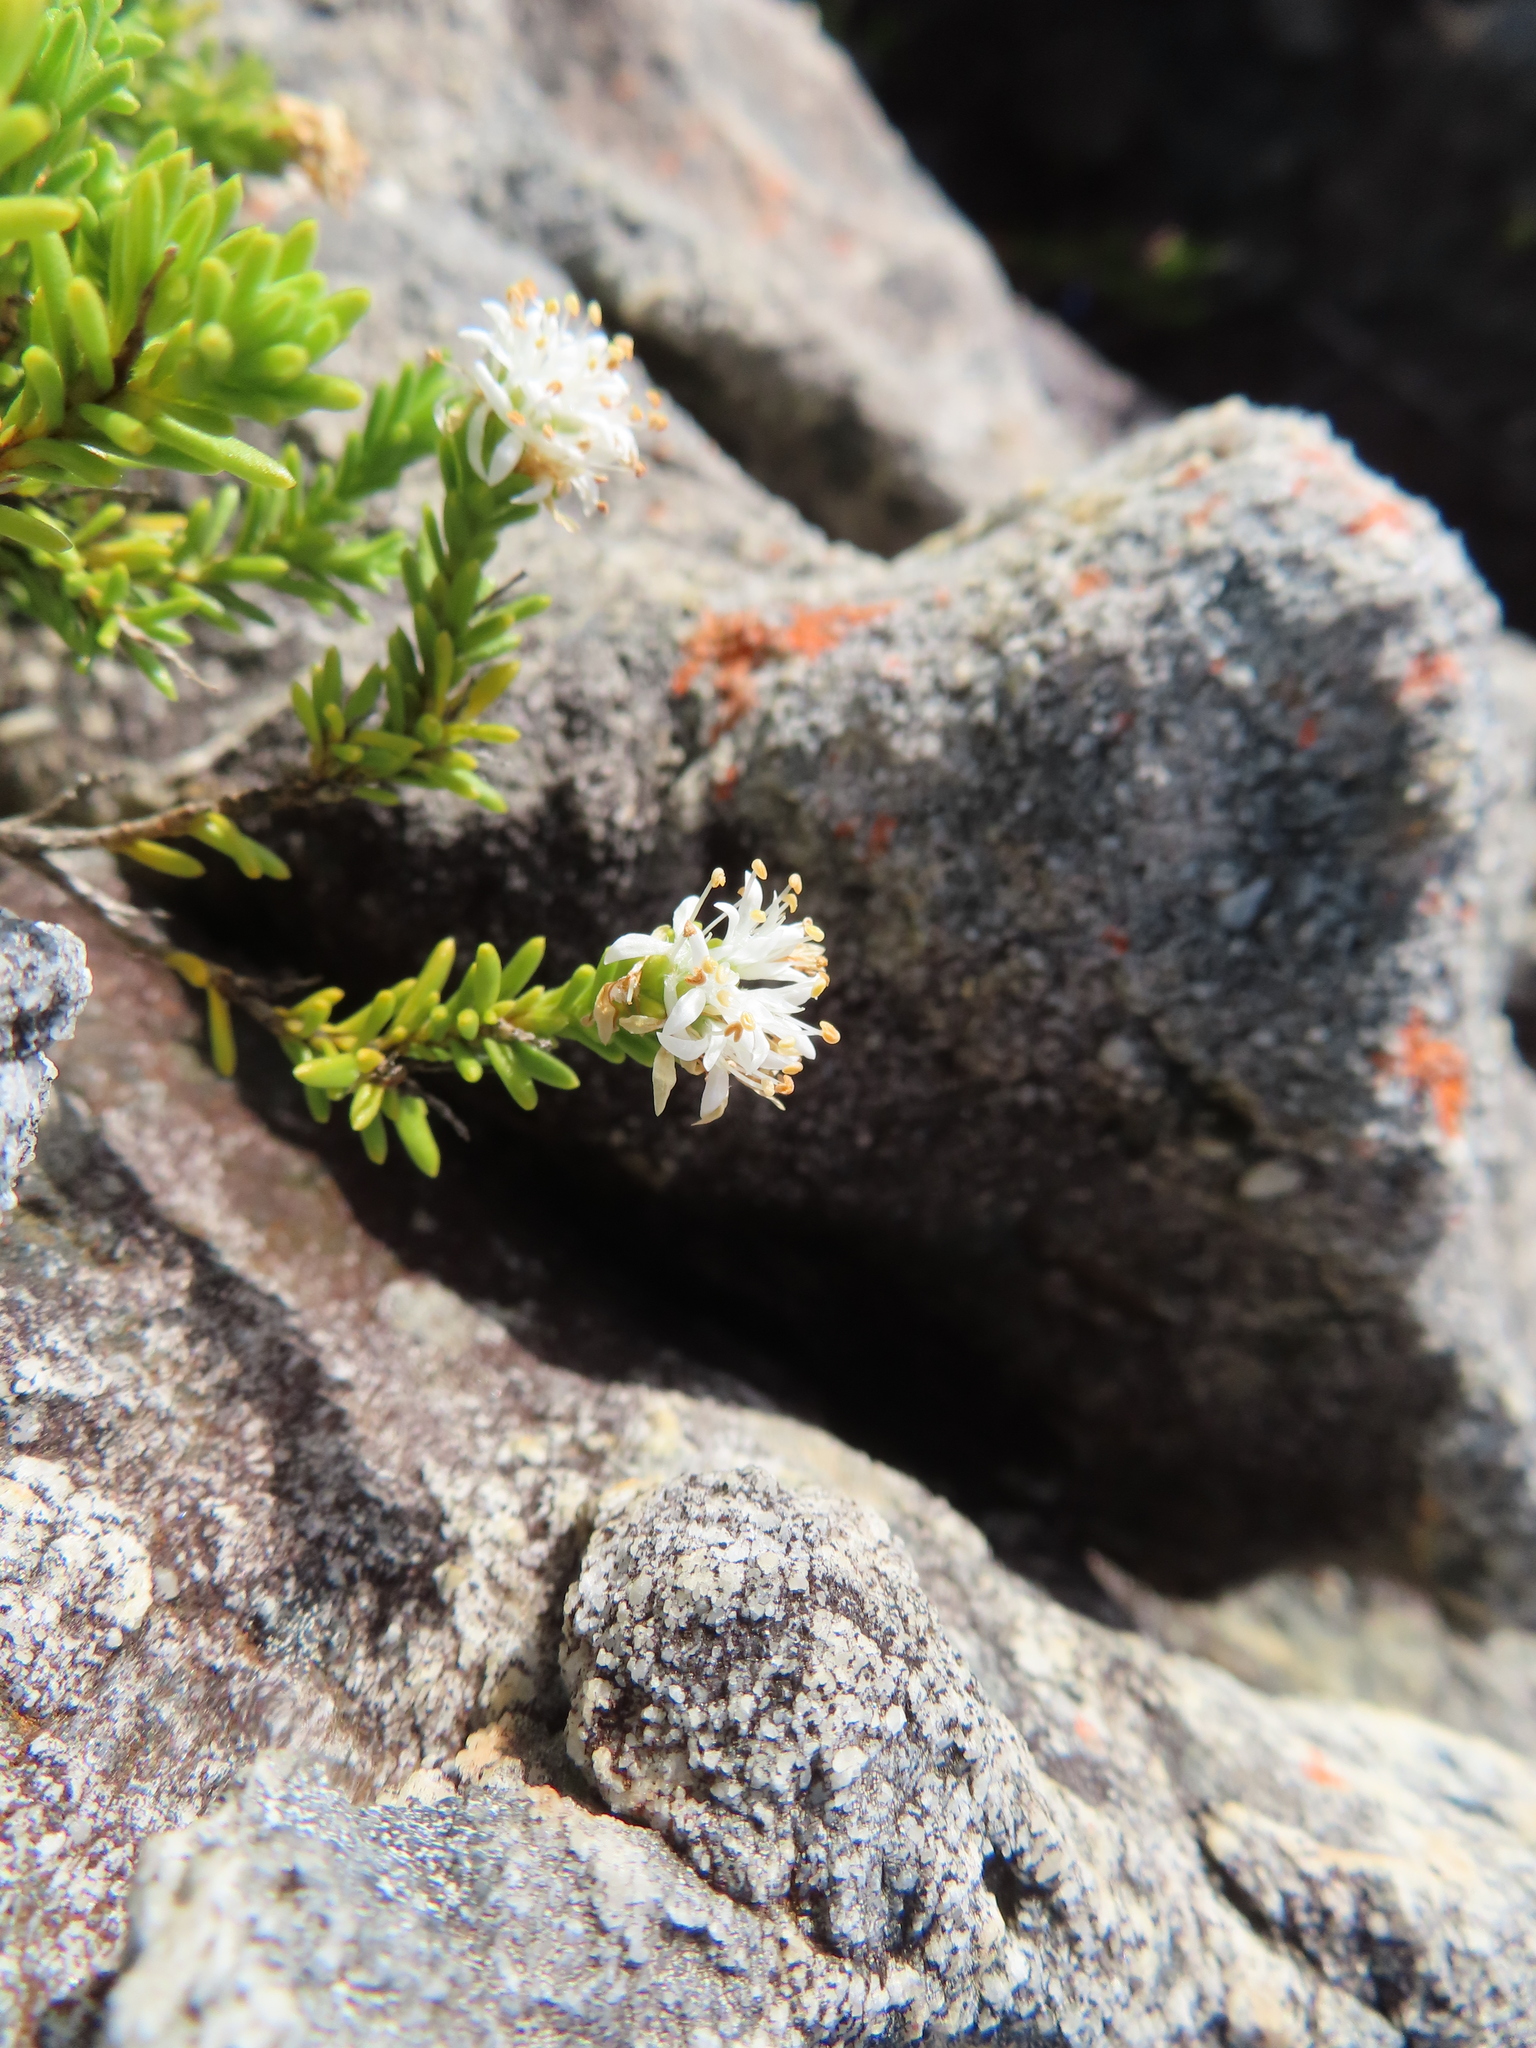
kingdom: Plantae
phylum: Tracheophyta
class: Magnoliopsida
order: Lamiales
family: Stilbaceae
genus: Stilbe
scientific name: Stilbe rupestris
